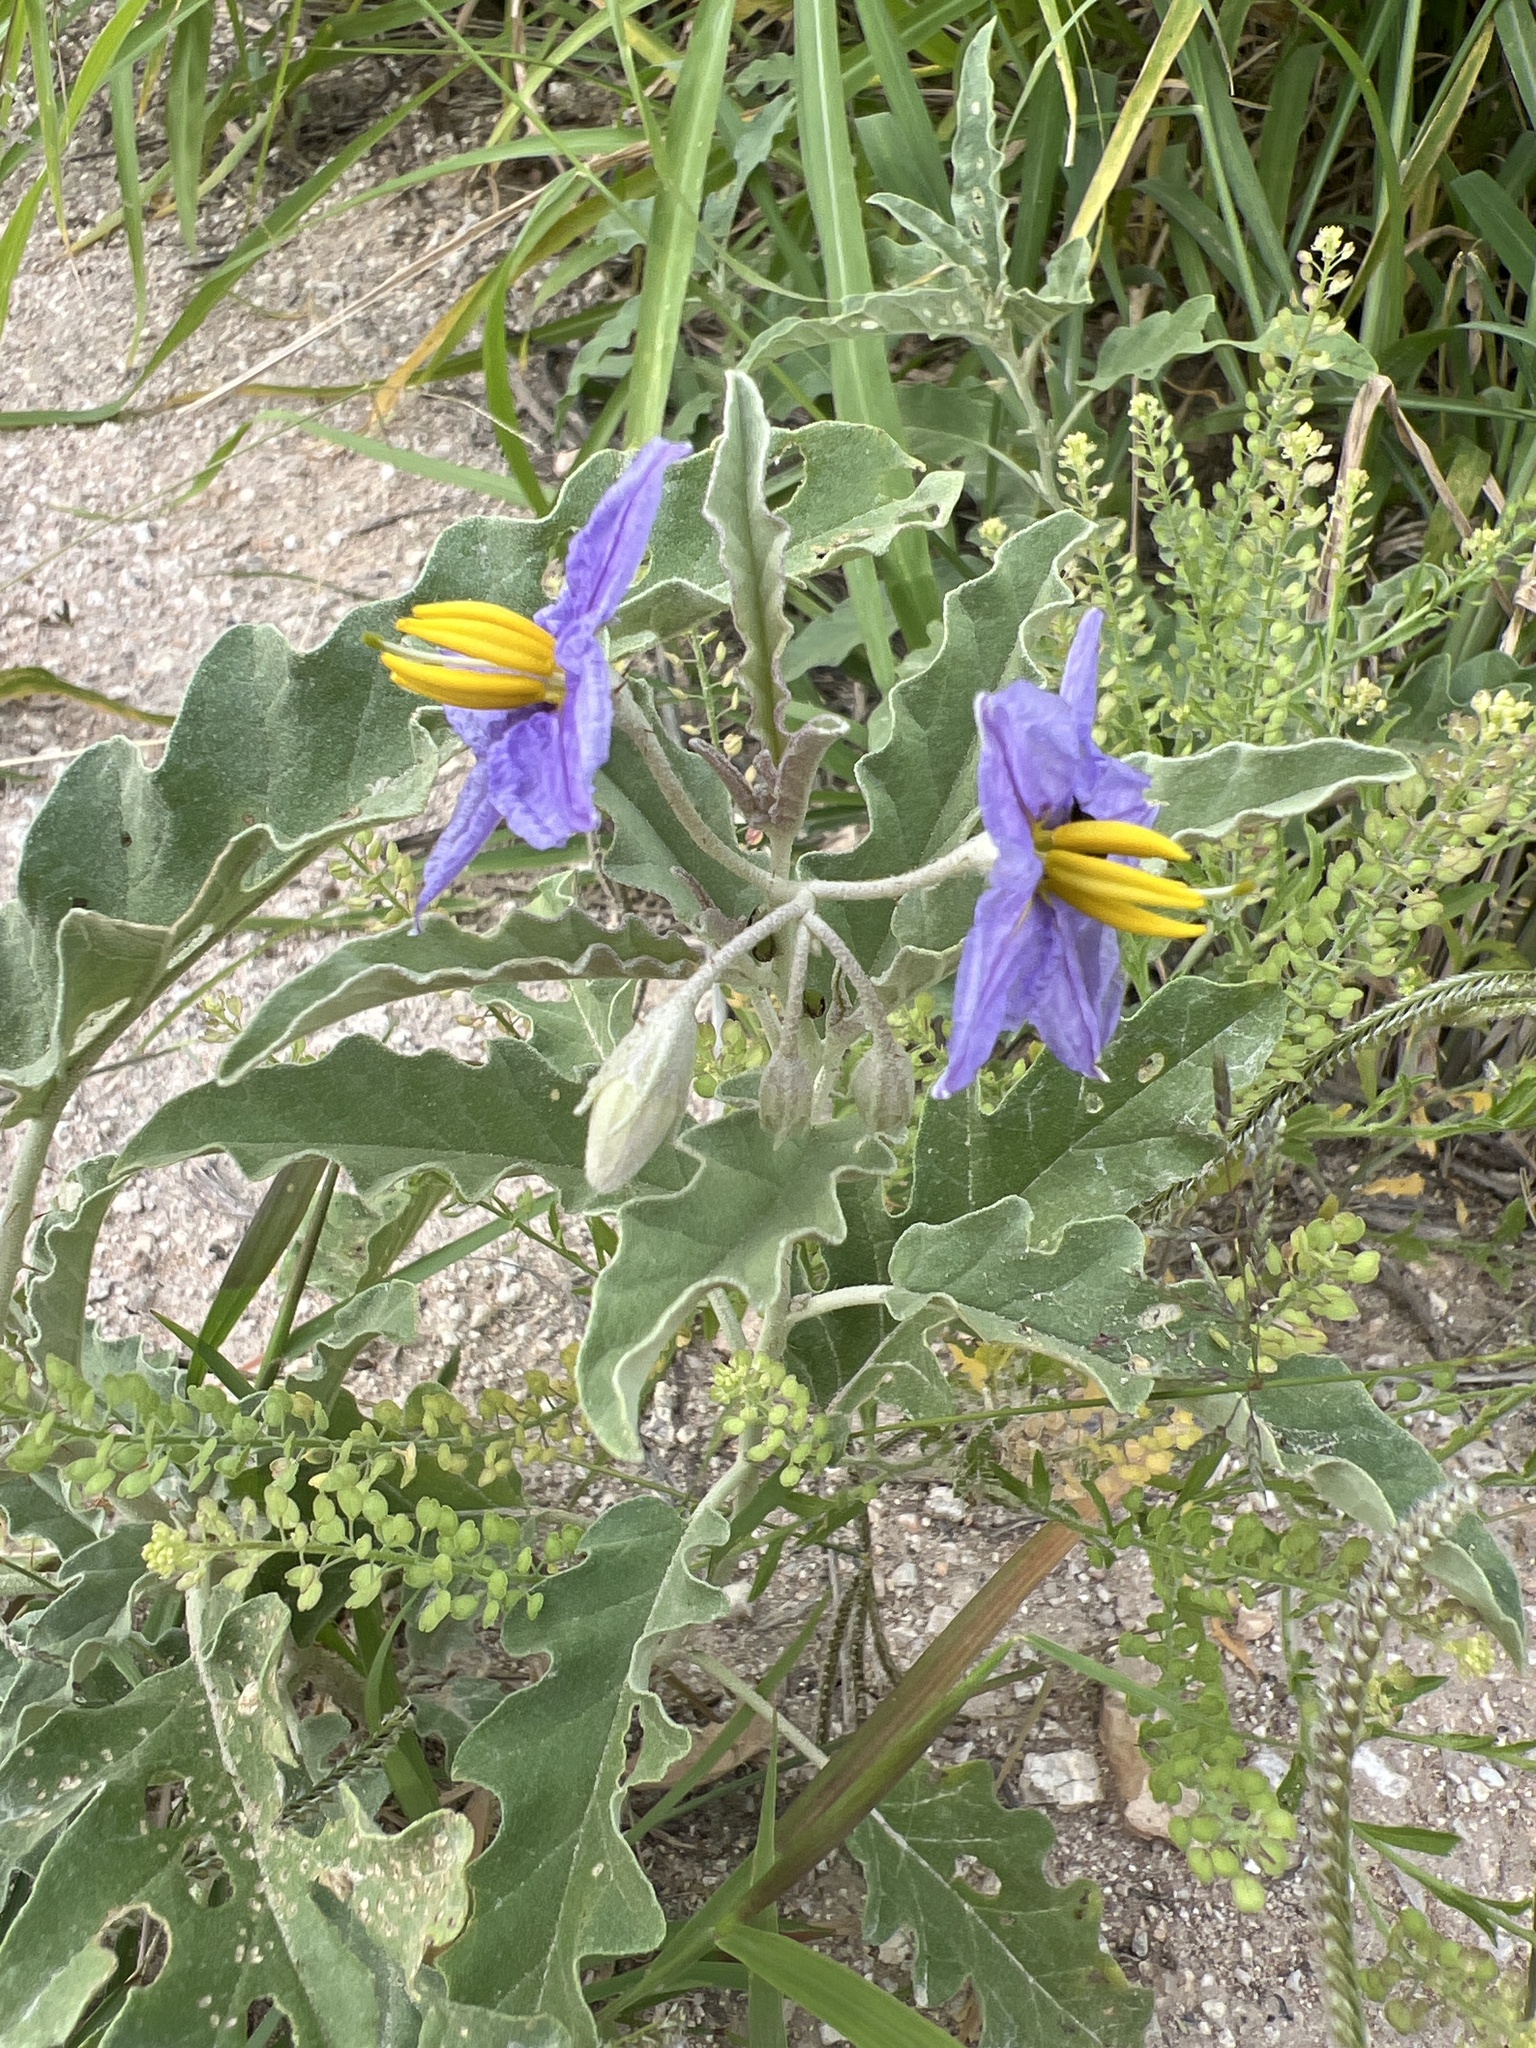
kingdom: Plantae
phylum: Tracheophyta
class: Magnoliopsida
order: Solanales
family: Solanaceae
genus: Solanum
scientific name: Solanum elaeagnifolium
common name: Silverleaf nightshade
